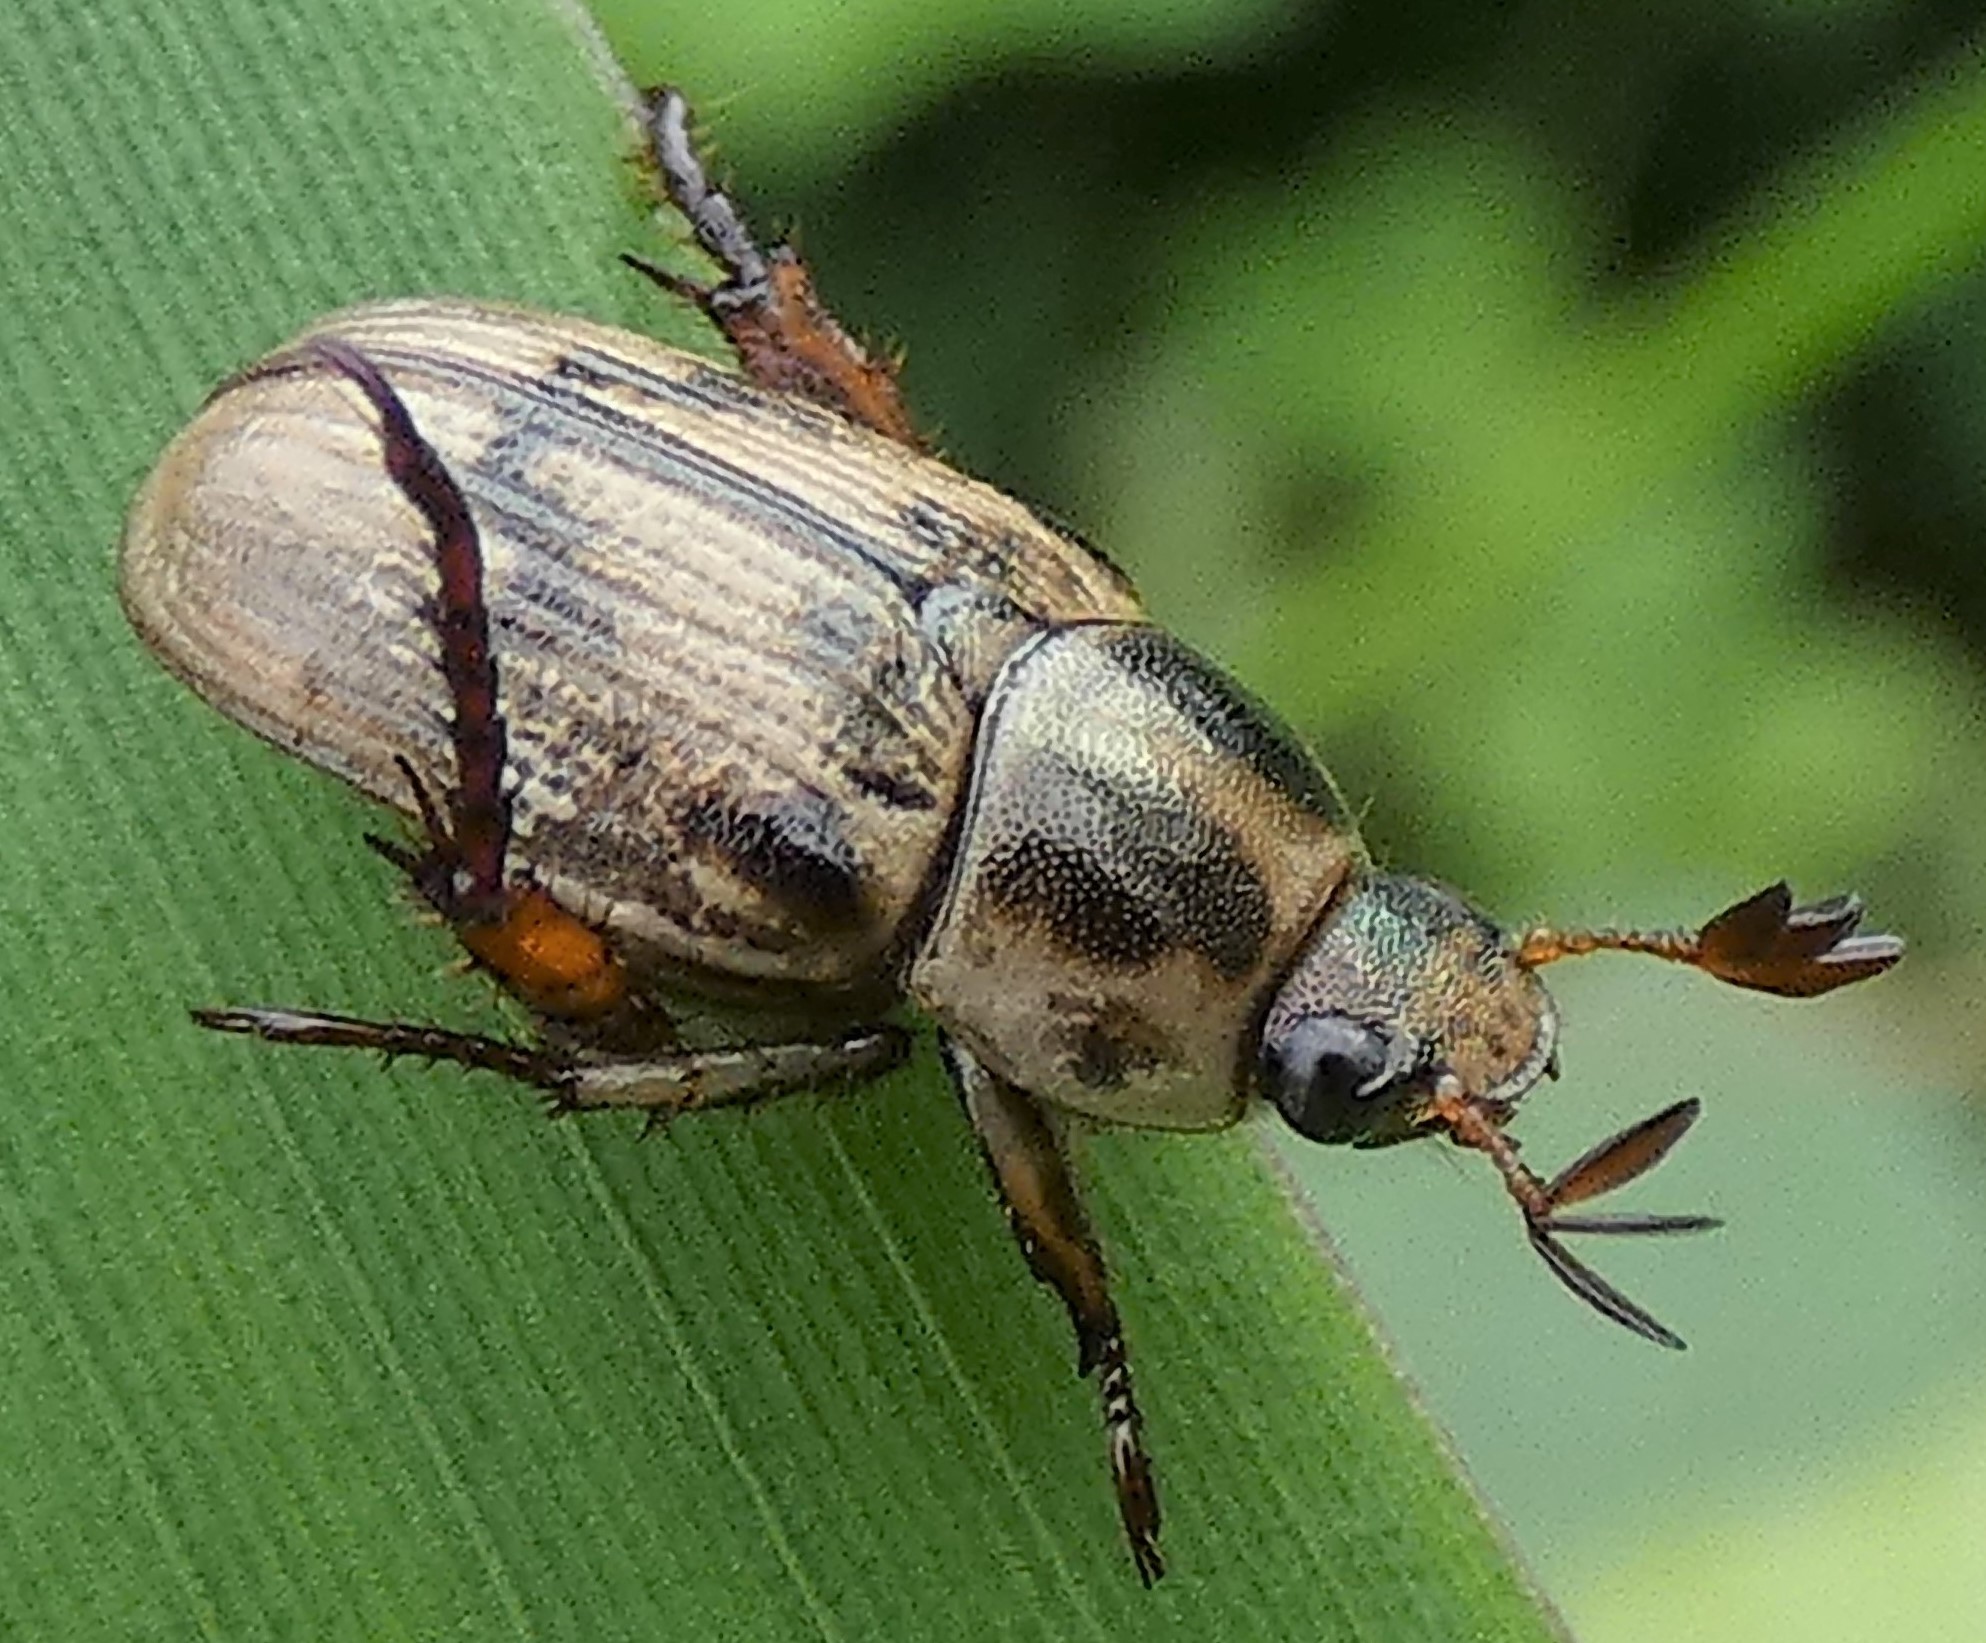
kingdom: Animalia
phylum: Arthropoda
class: Insecta
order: Coleoptera
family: Scarabaeidae
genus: Exomala
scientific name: Exomala orientalis
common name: Oriental beetle
